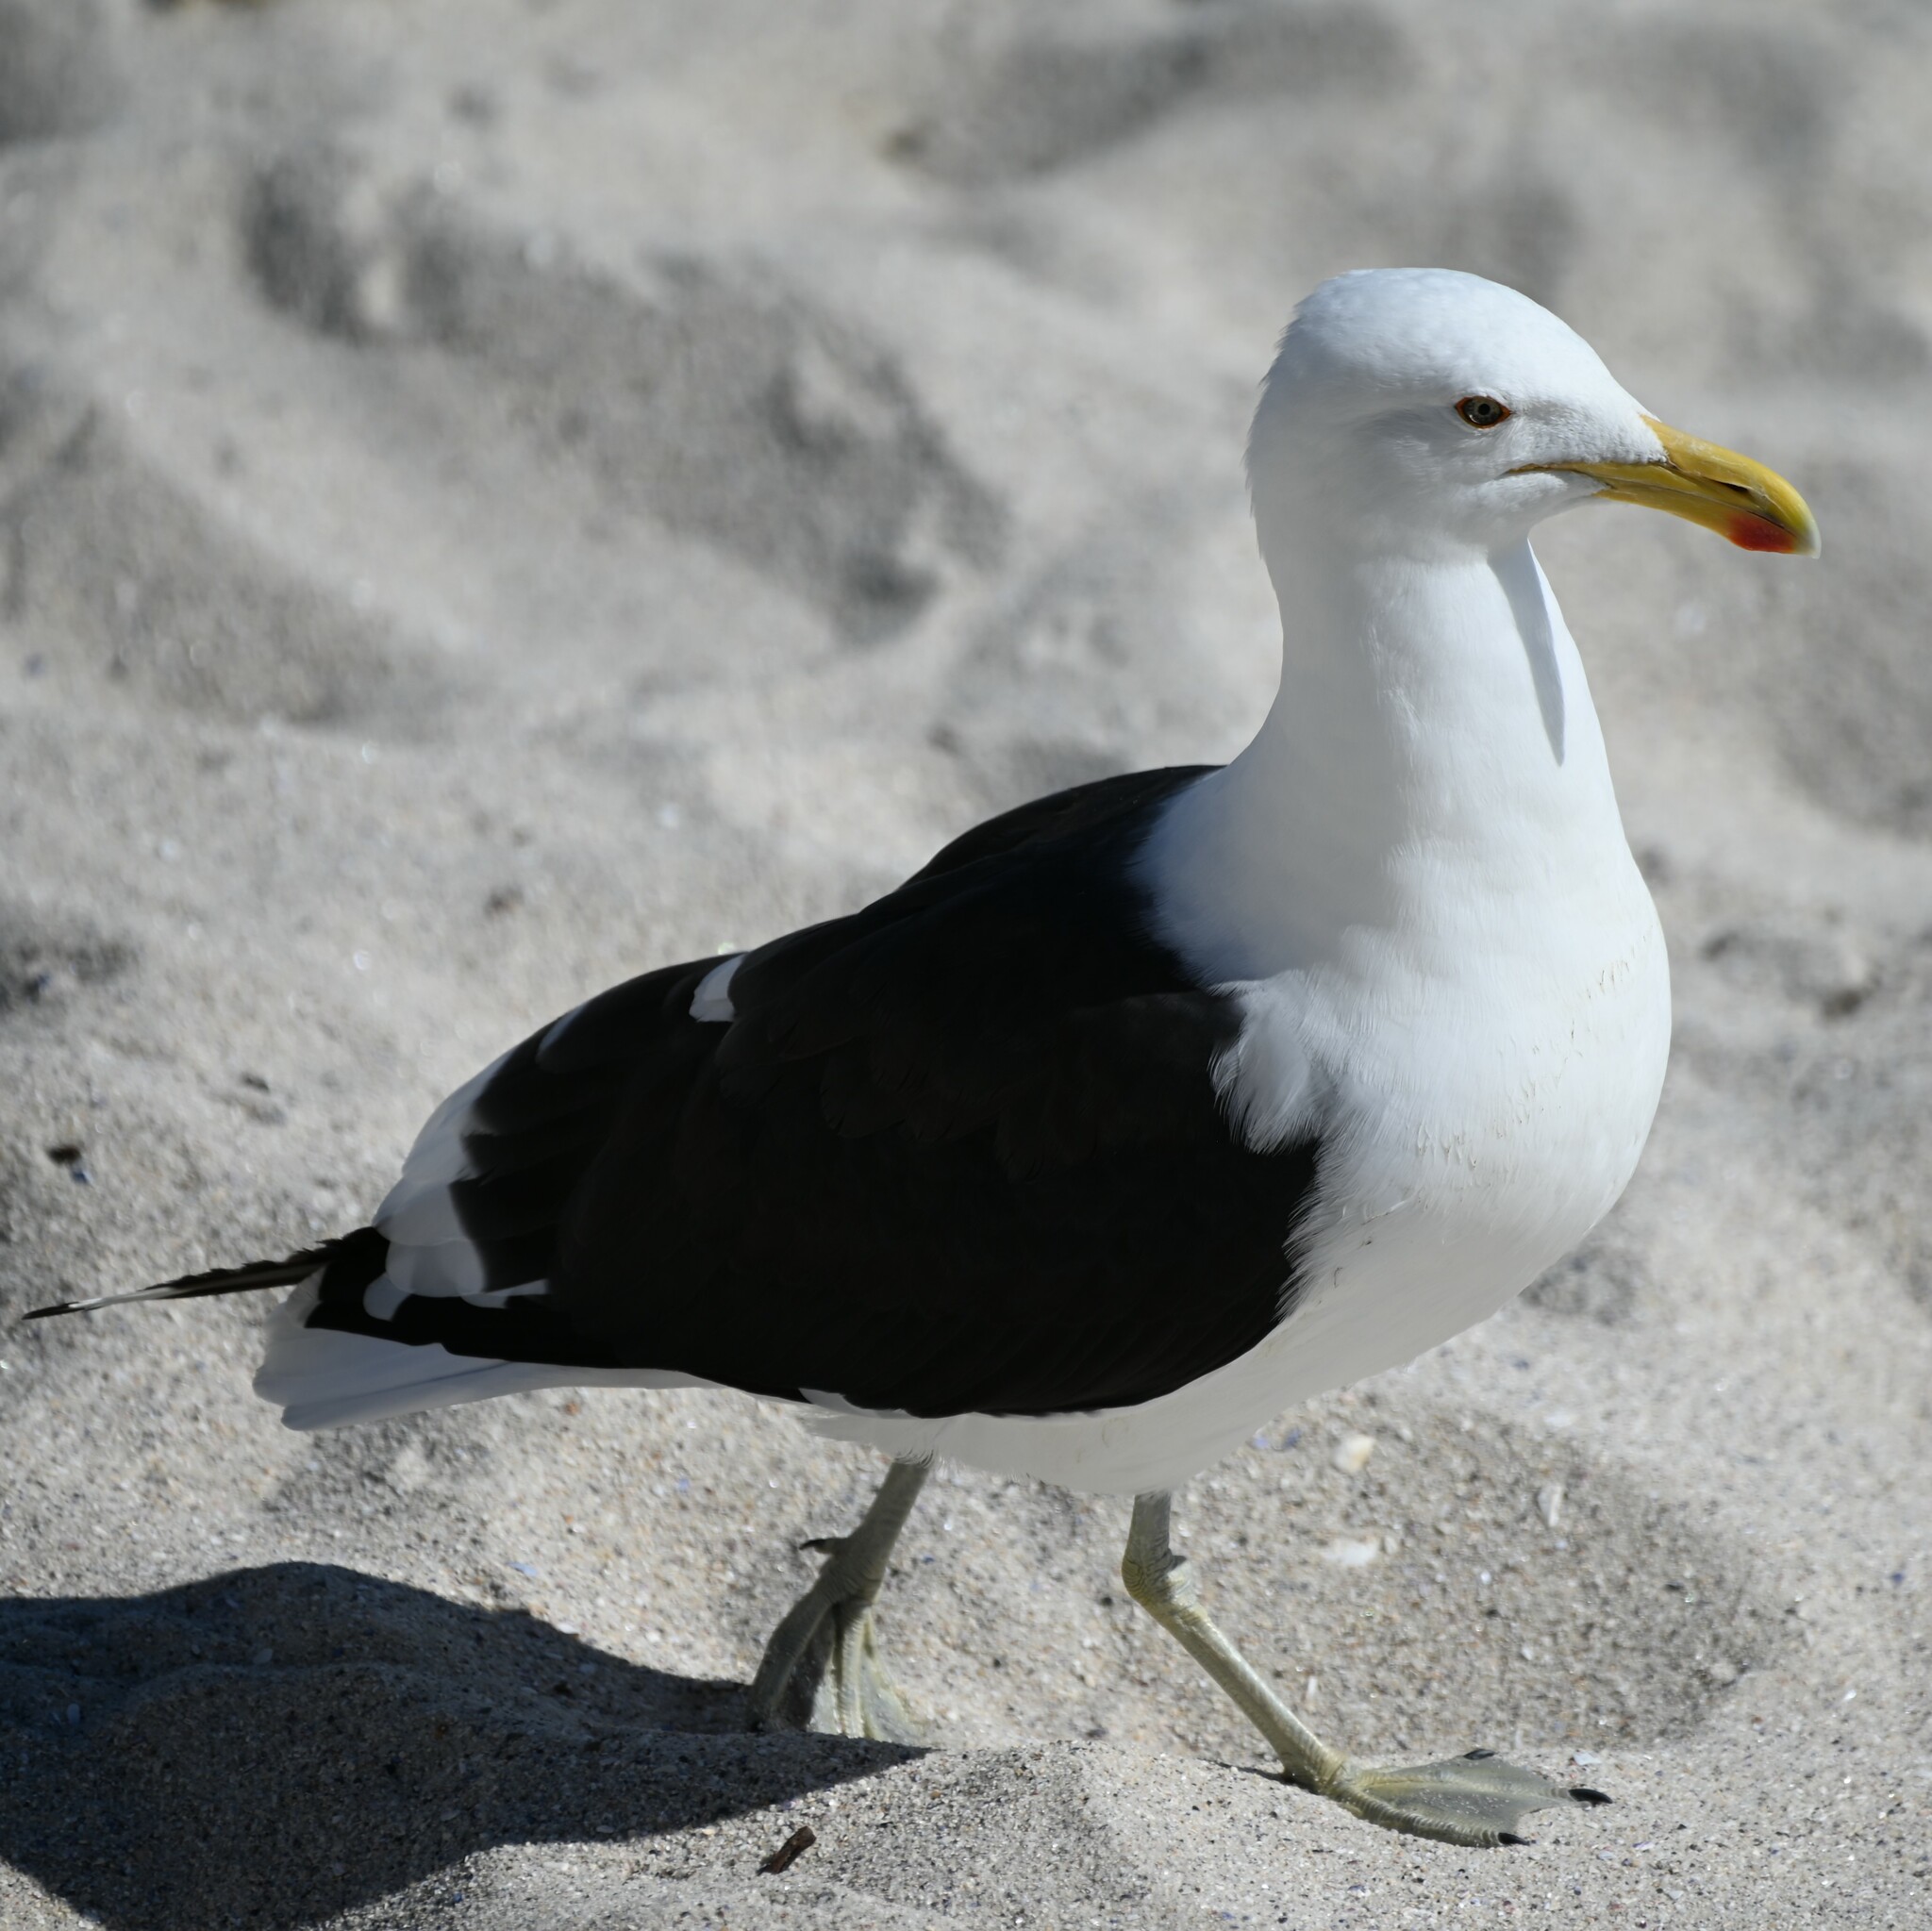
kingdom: Animalia
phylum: Chordata
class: Aves
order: Charadriiformes
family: Laridae
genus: Larus
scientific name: Larus dominicanus
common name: Kelp gull
